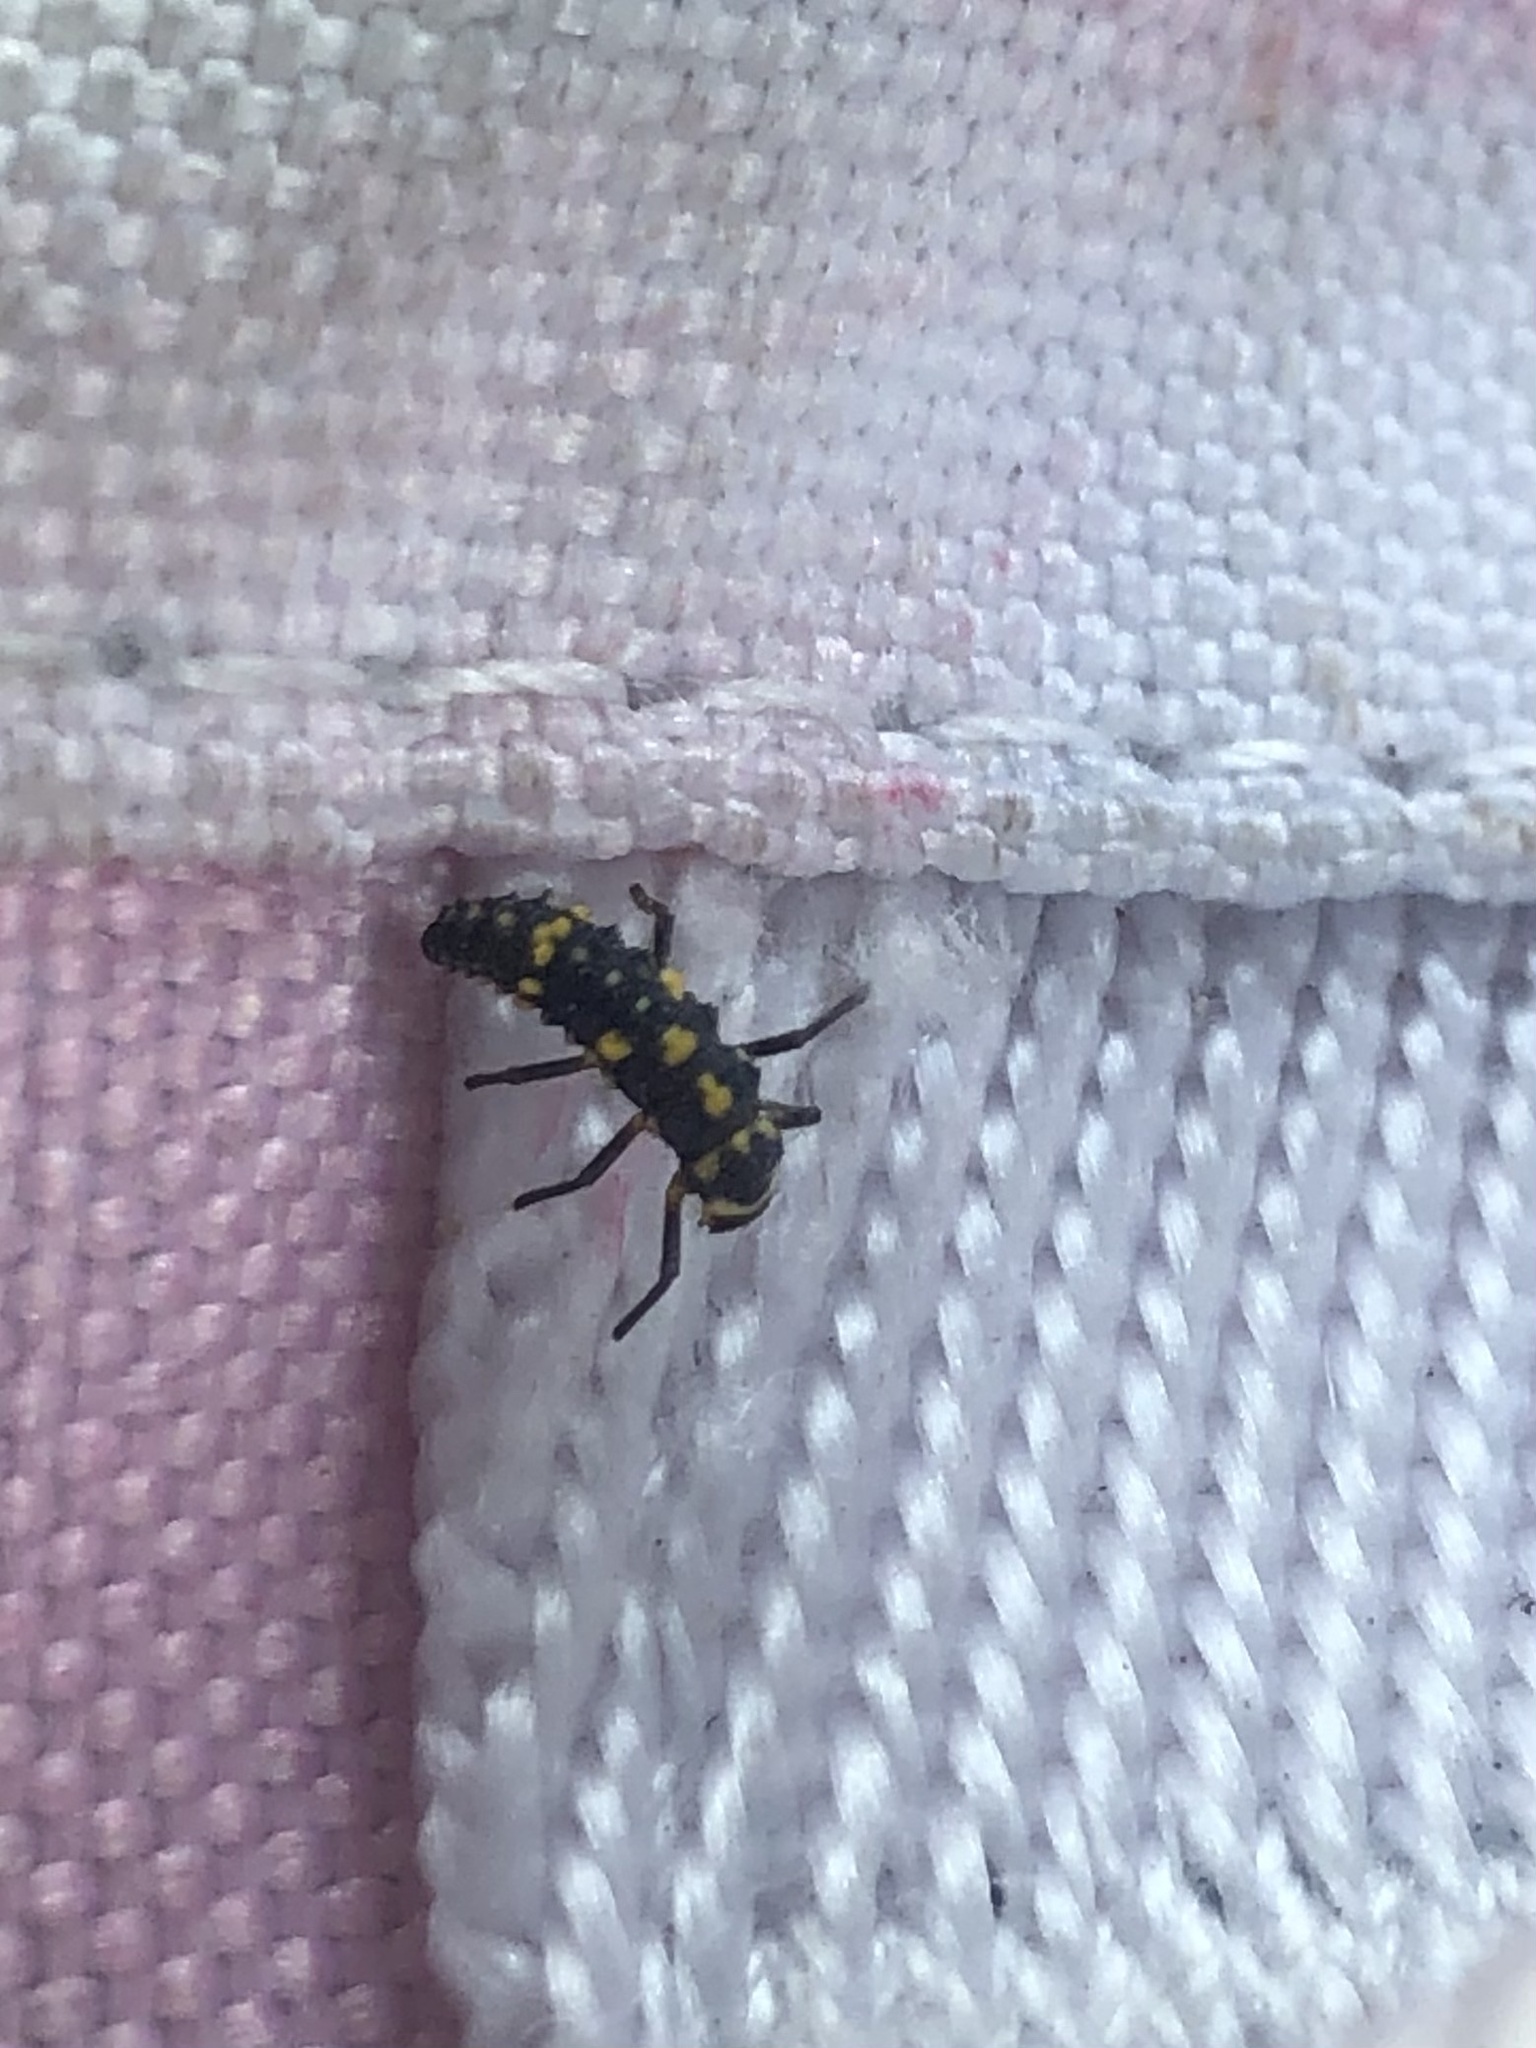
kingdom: Animalia
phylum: Arthropoda
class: Insecta
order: Coleoptera
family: Coccinellidae
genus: Olla
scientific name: Olla v-nigrum
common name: Ashy gray lady beetle
